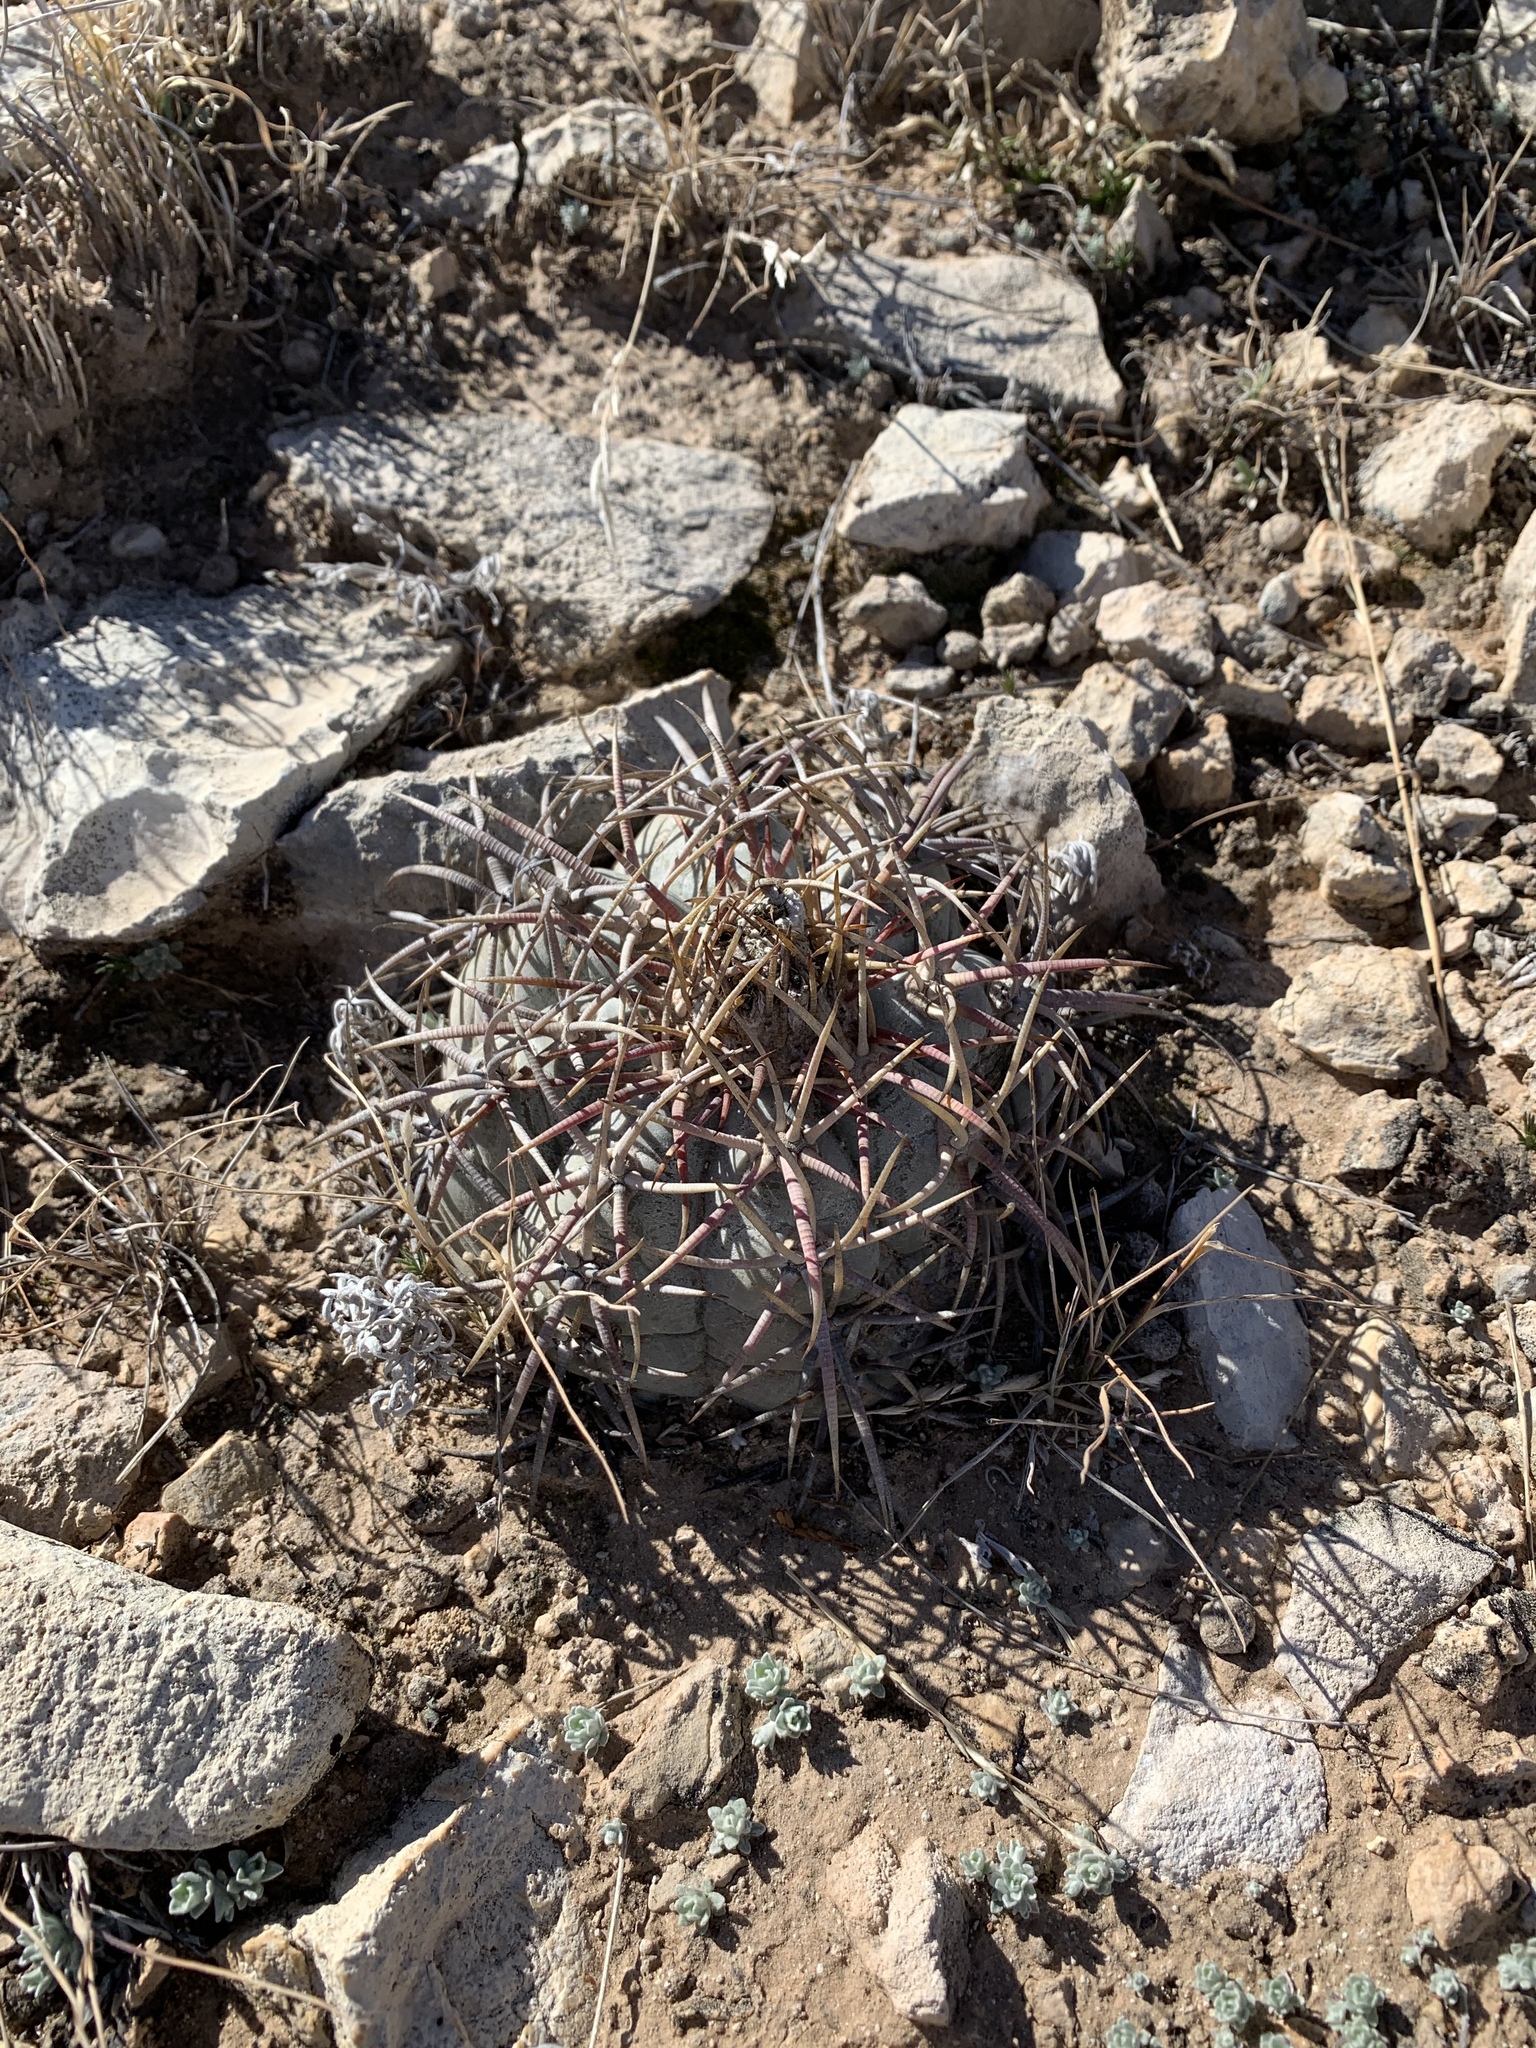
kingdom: Plantae
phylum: Tracheophyta
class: Magnoliopsida
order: Caryophyllales
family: Cactaceae
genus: Echinocactus
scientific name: Echinocactus horizonthalonius
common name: Devilshead
